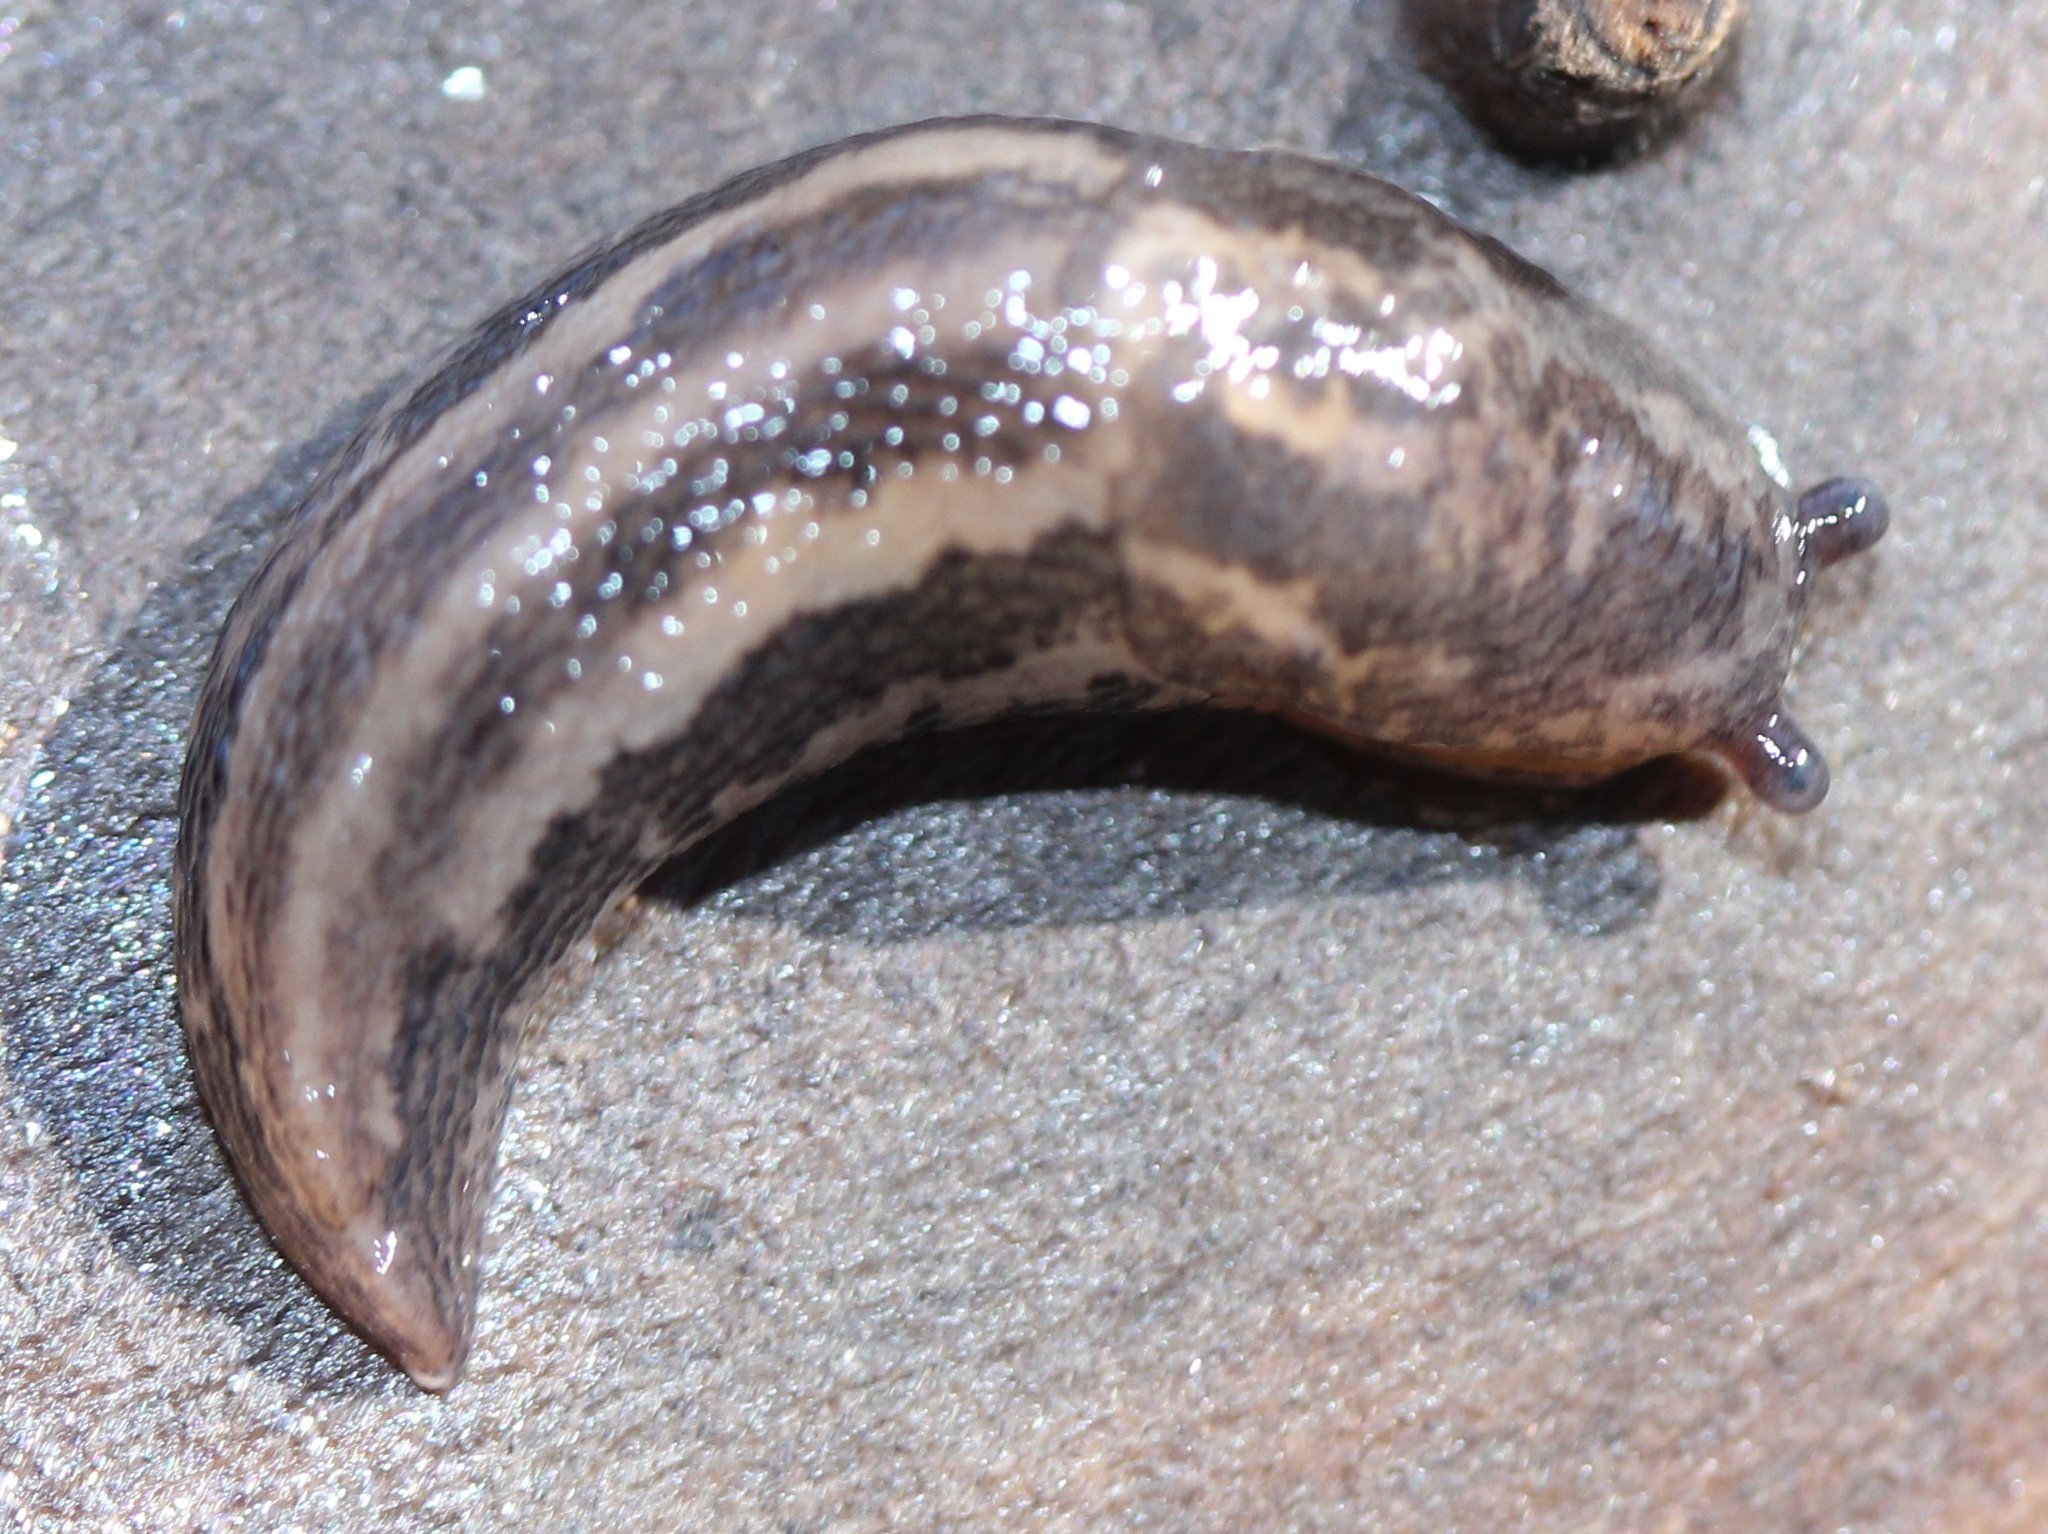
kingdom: Animalia
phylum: Mollusca
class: Gastropoda
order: Stylommatophora
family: Limacidae
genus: Limax
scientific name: Limax maximus
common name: Great grey slug
